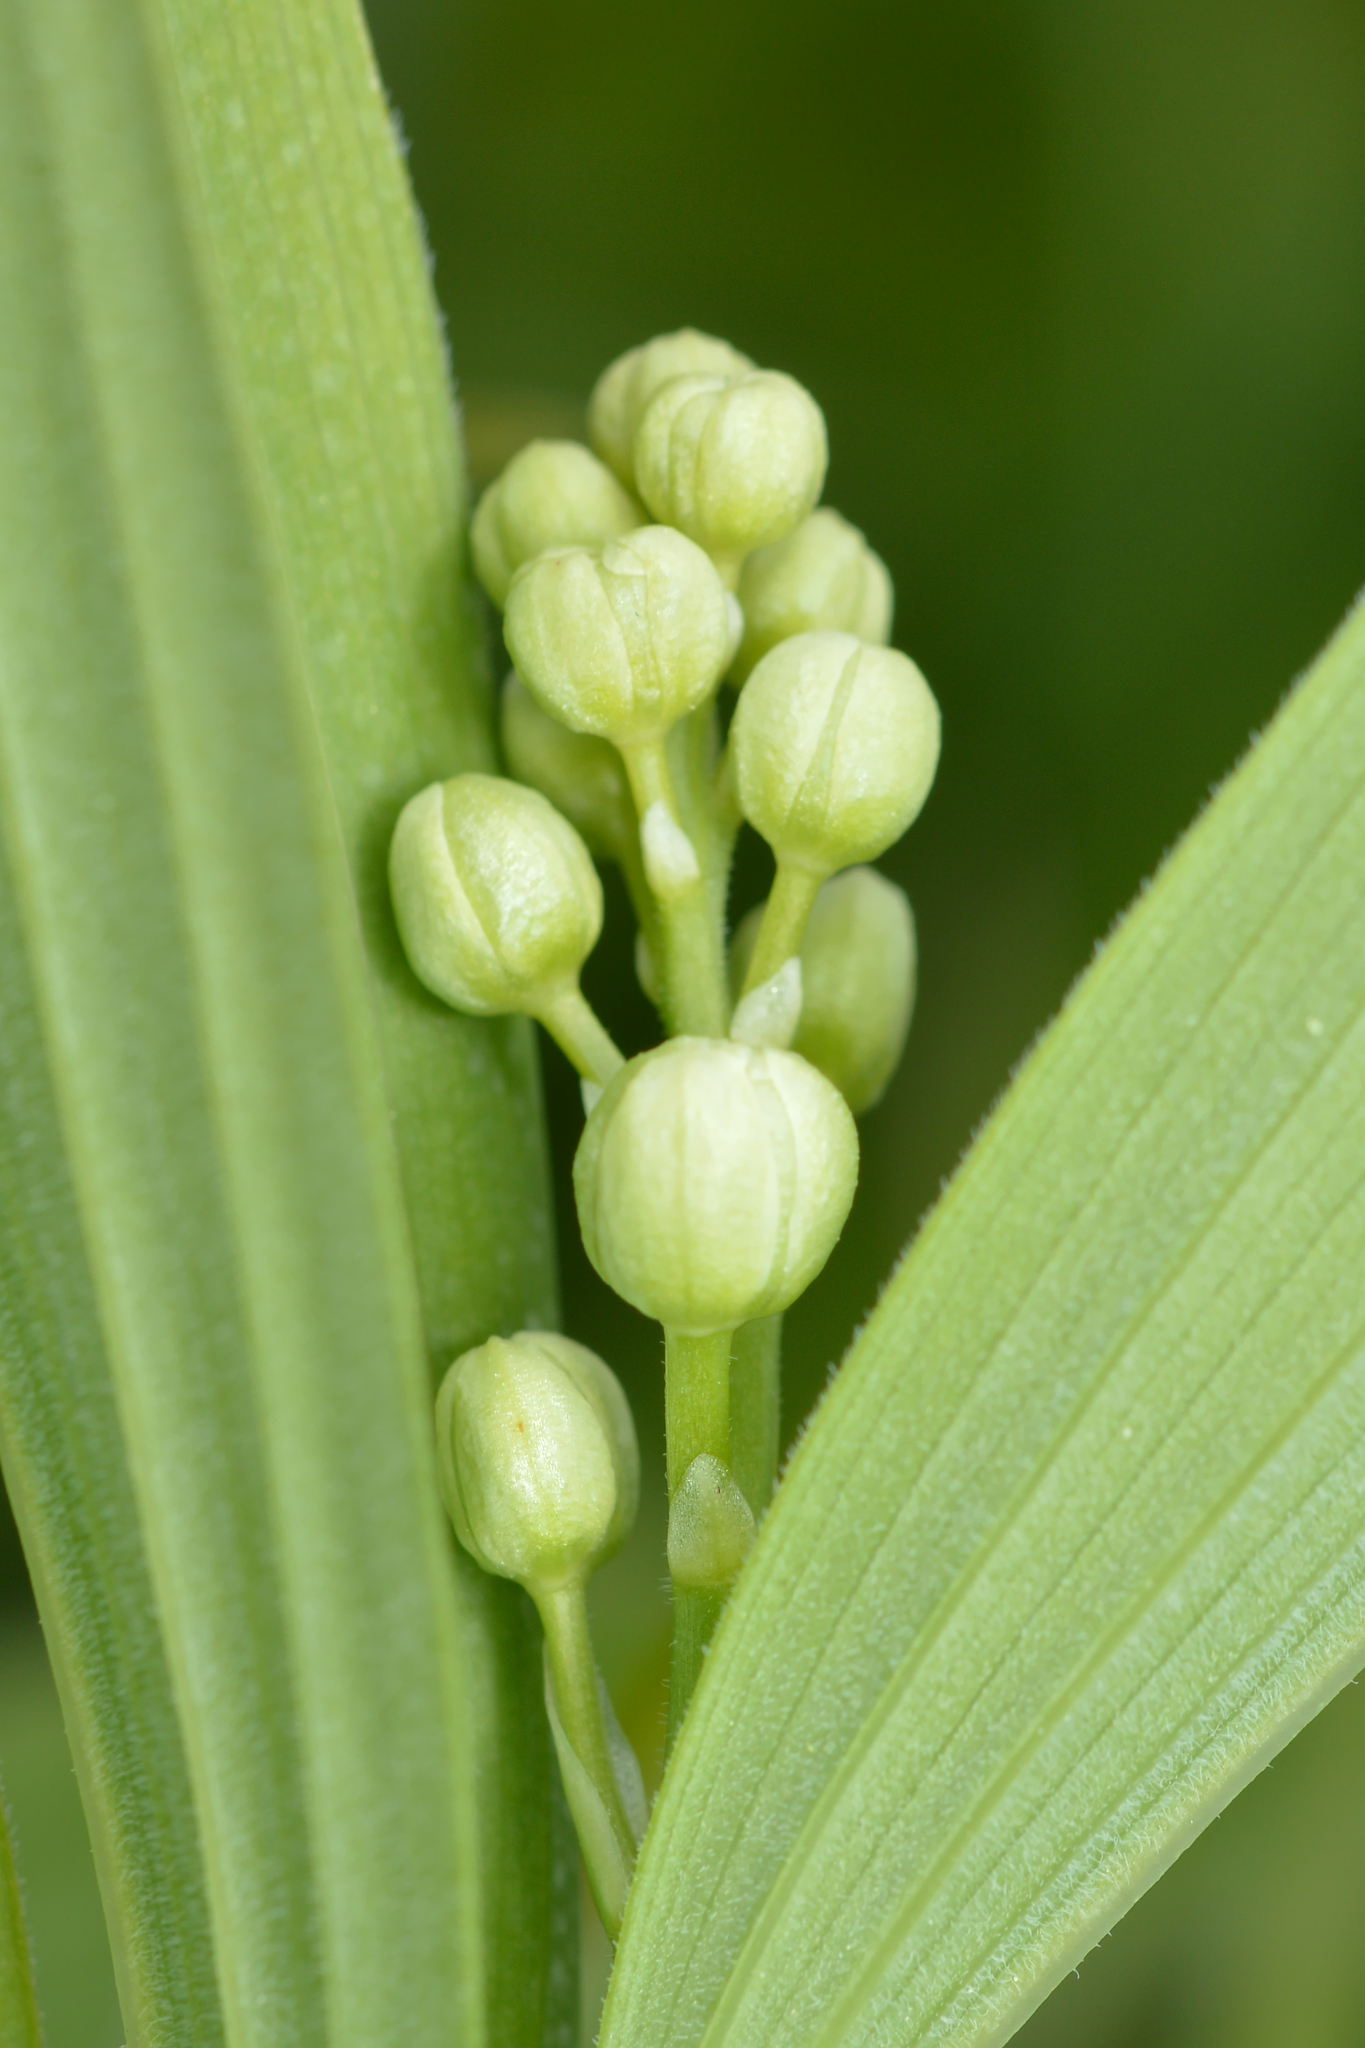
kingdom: Plantae
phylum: Tracheophyta
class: Liliopsida
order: Asparagales
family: Asparagaceae
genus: Convallaria
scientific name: Convallaria majalis
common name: Lily-of-the-valley
